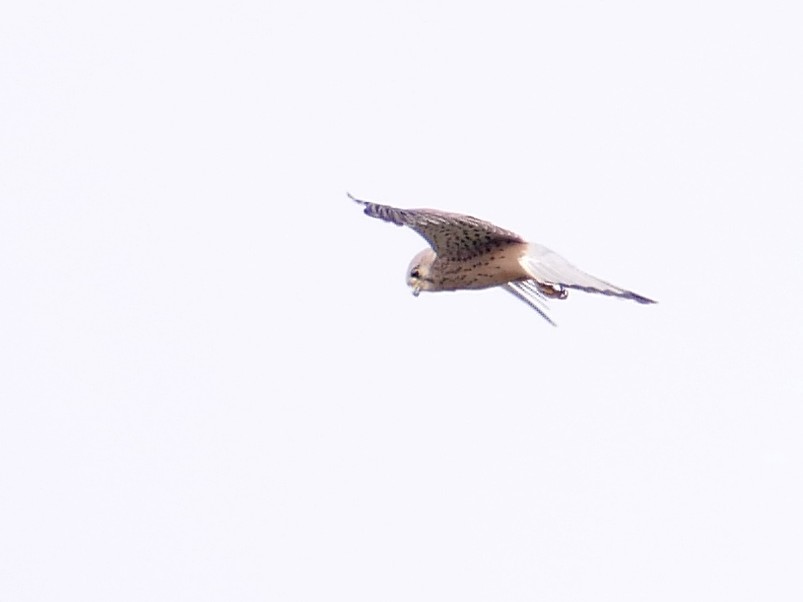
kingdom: Animalia
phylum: Chordata
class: Aves
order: Falconiformes
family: Falconidae
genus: Falco
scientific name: Falco tinnunculus
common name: Common kestrel
